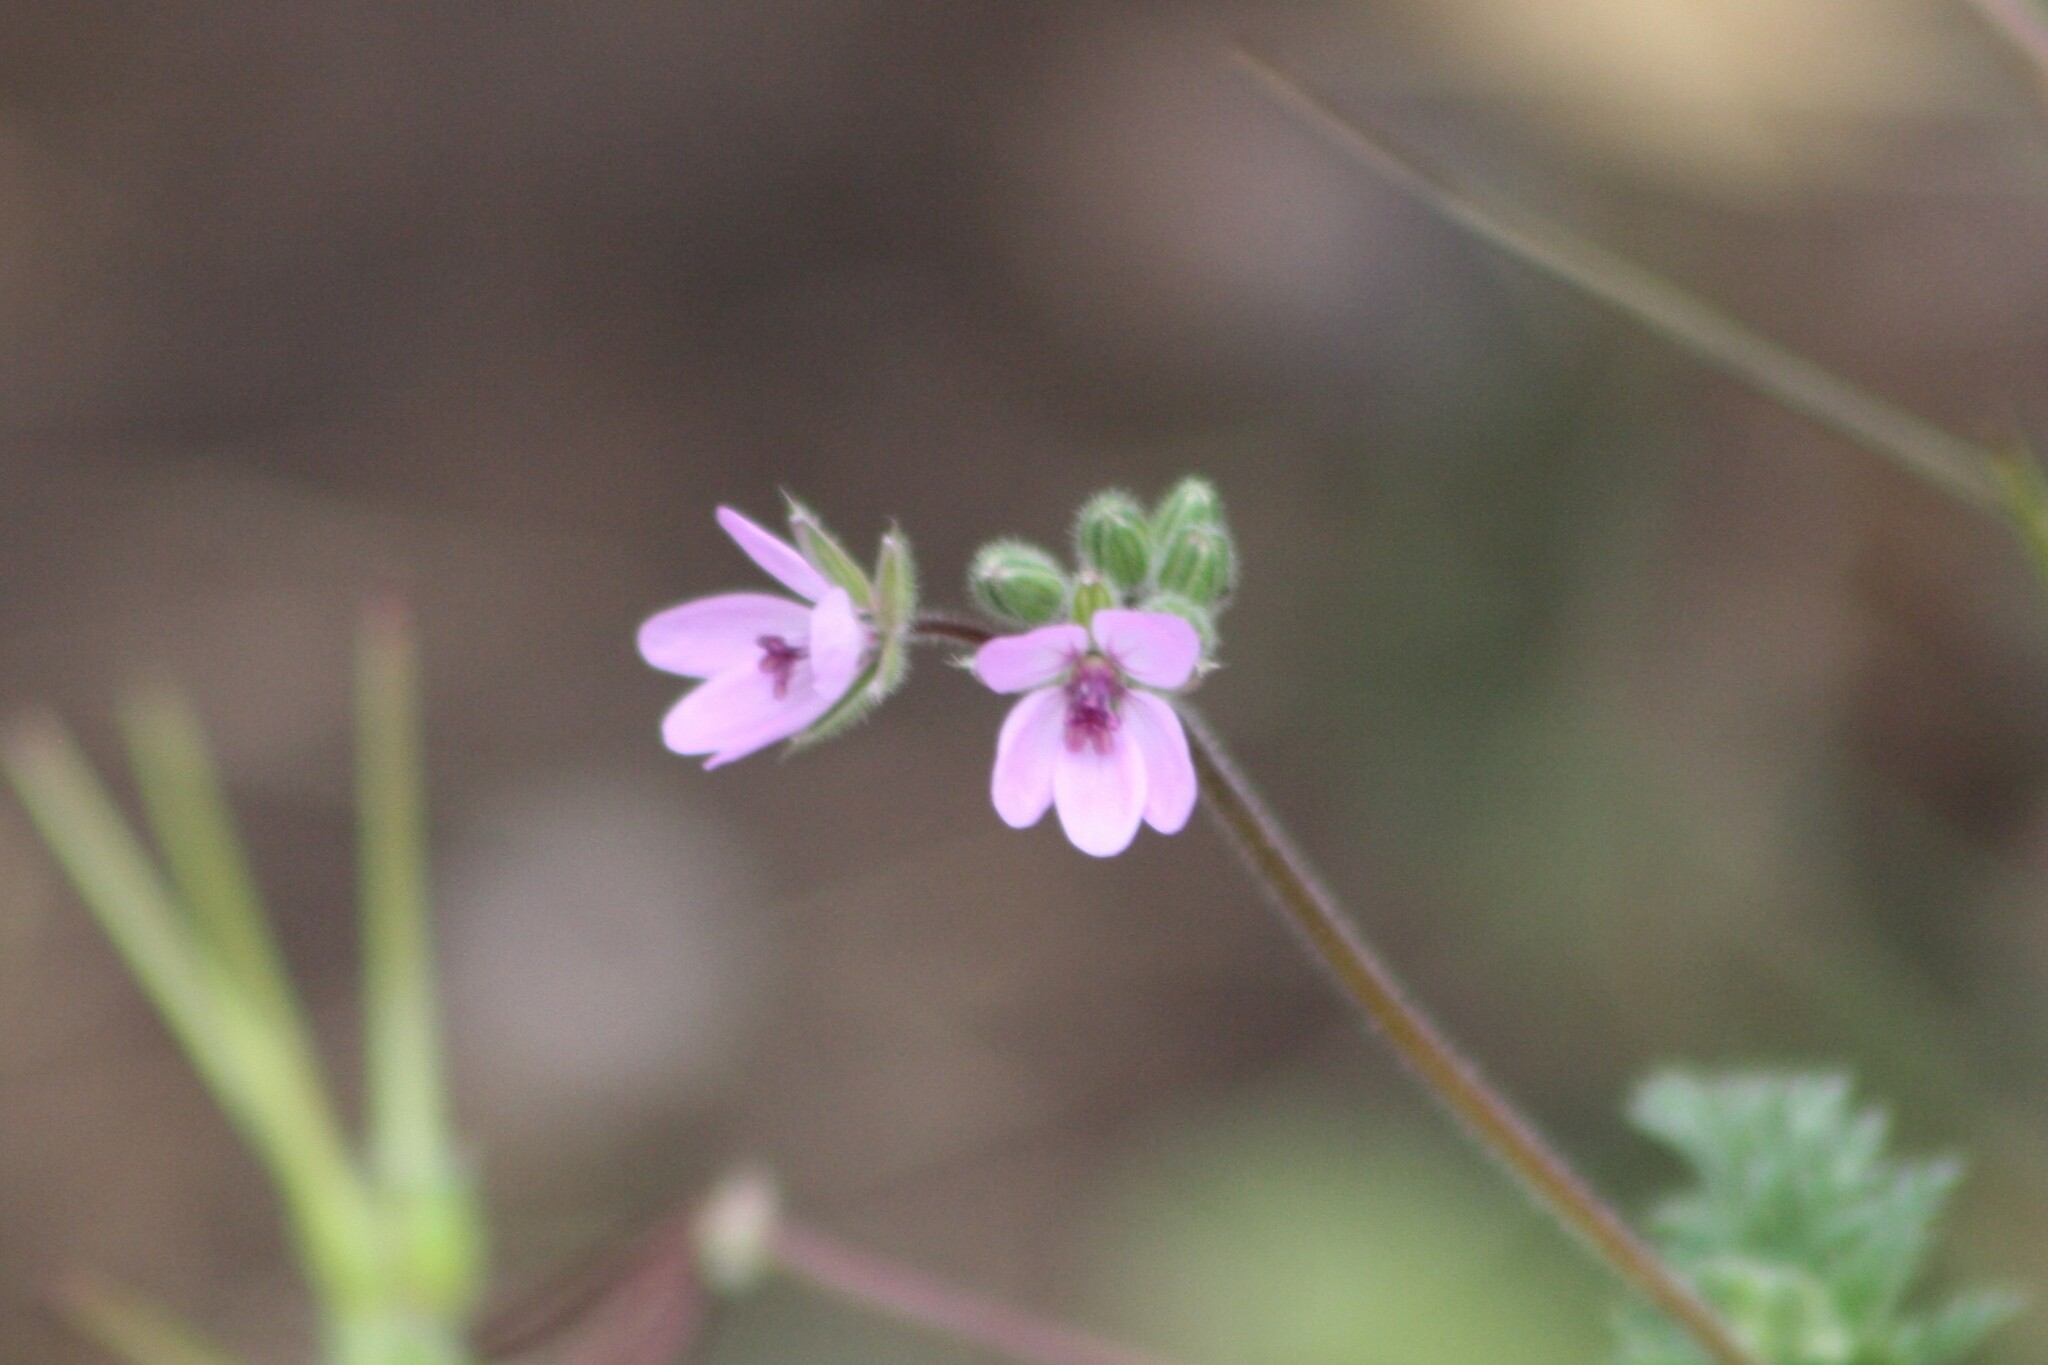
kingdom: Plantae
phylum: Tracheophyta
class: Magnoliopsida
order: Geraniales
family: Geraniaceae
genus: Erodium
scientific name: Erodium cicutarium
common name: Common stork's-bill
